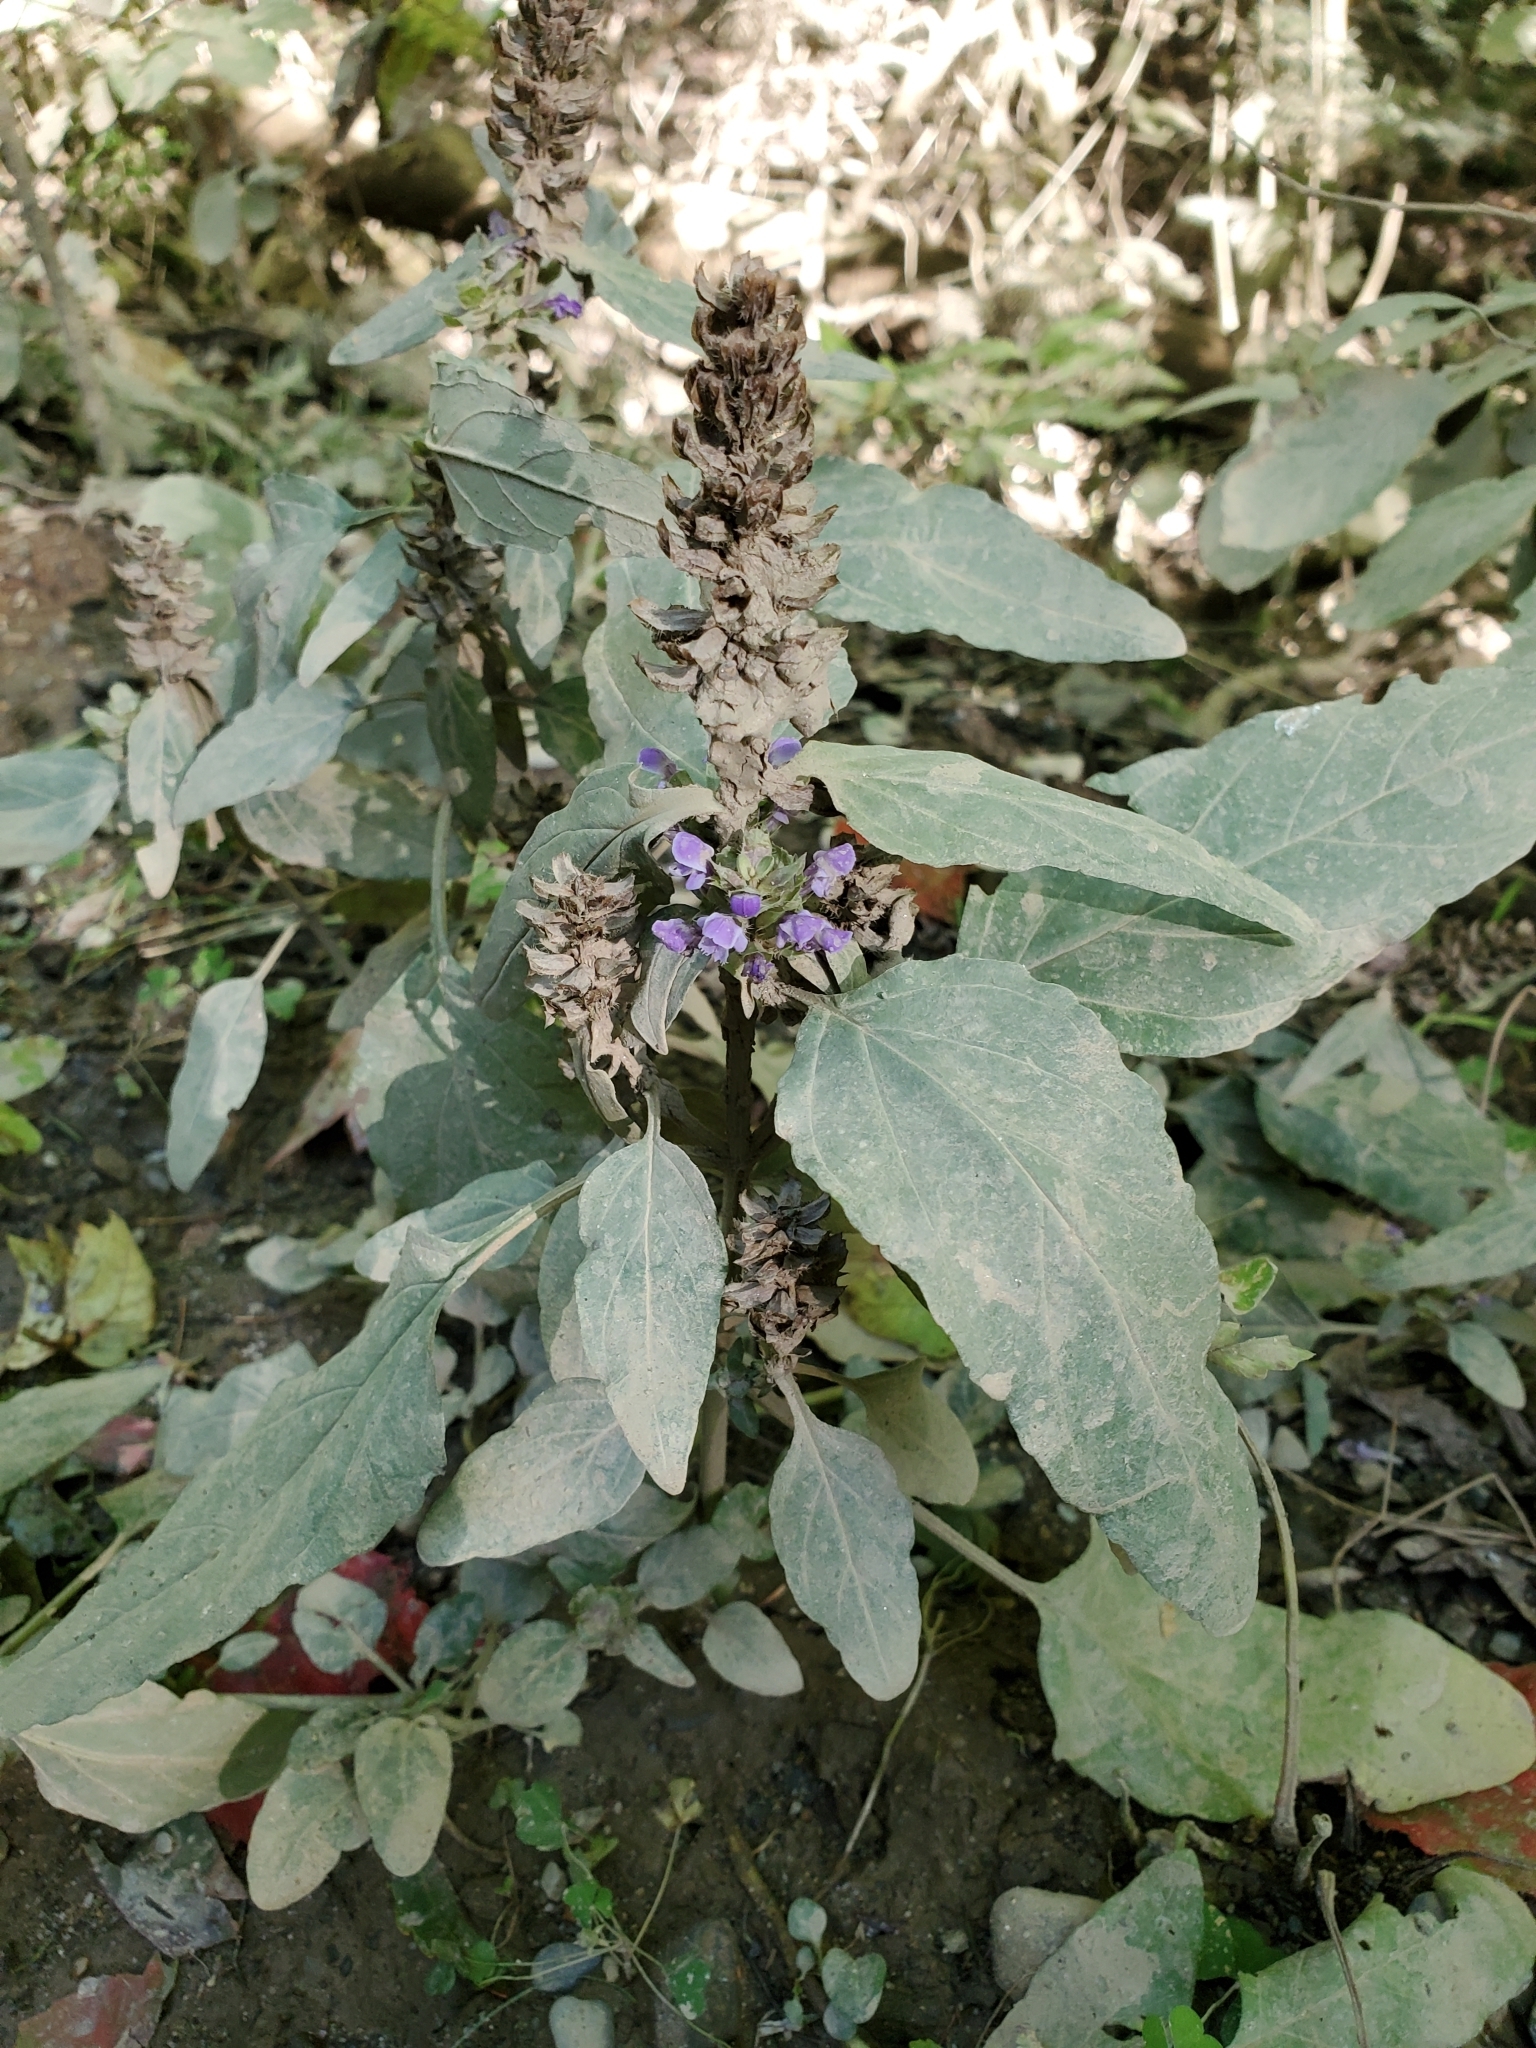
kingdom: Plantae
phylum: Tracheophyta
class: Magnoliopsida
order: Lamiales
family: Lamiaceae
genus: Prunella
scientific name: Prunella vulgaris
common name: Heal-all
